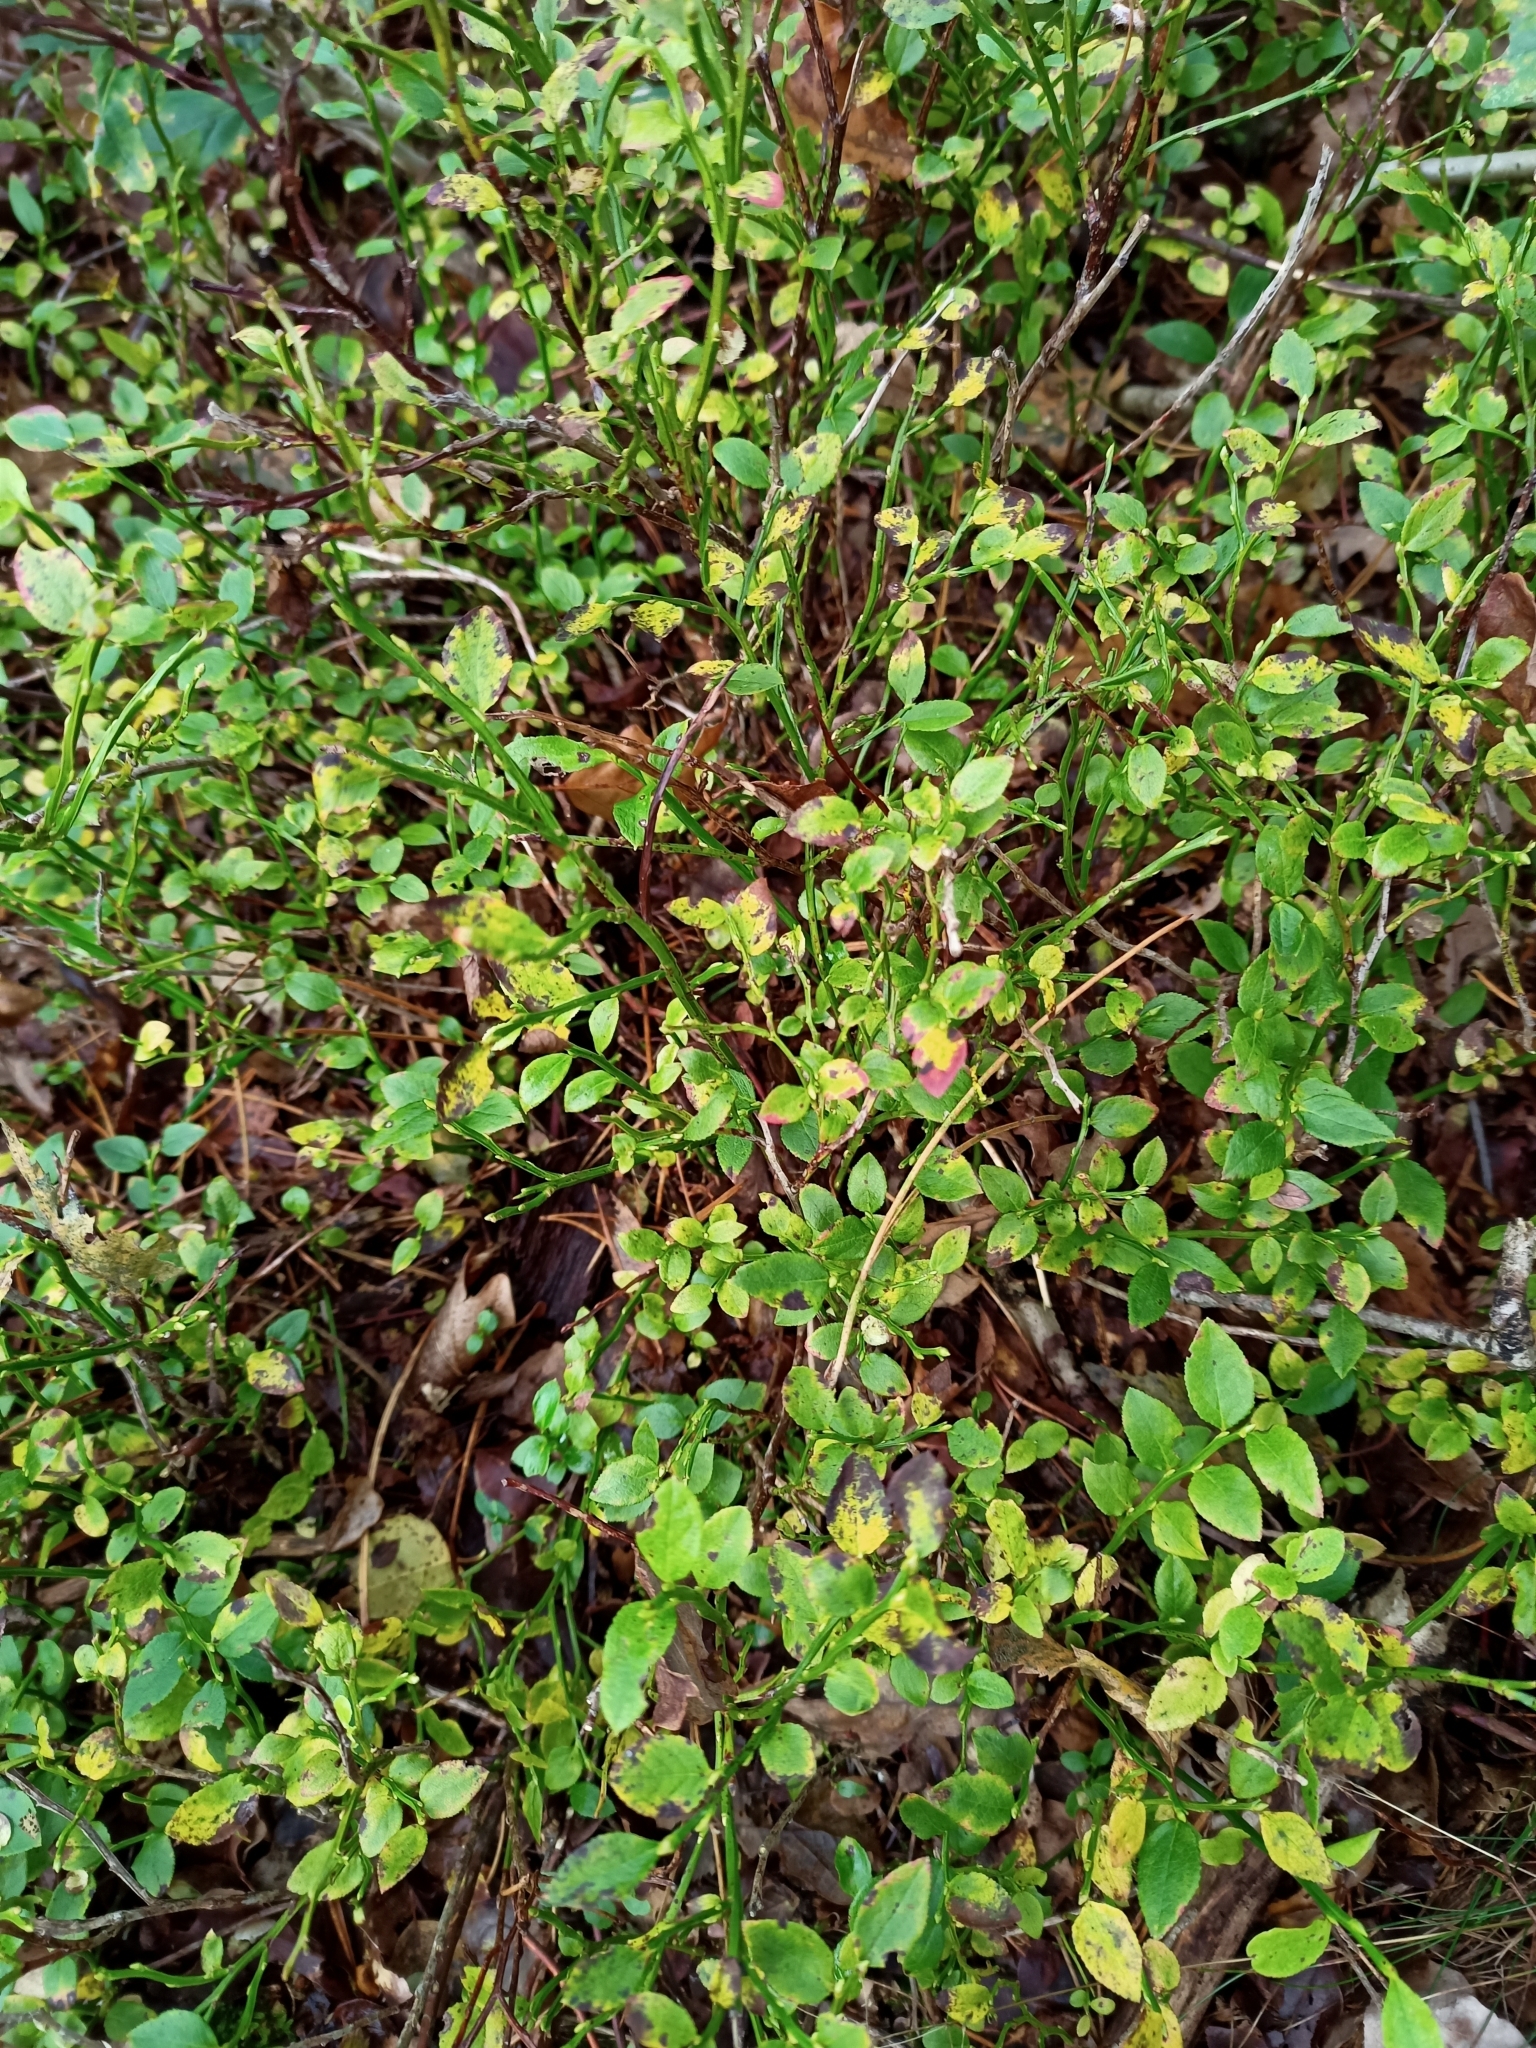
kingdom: Plantae
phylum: Tracheophyta
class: Magnoliopsida
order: Ericales
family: Ericaceae
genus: Vaccinium
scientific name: Vaccinium myrtillus
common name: Bilberry
